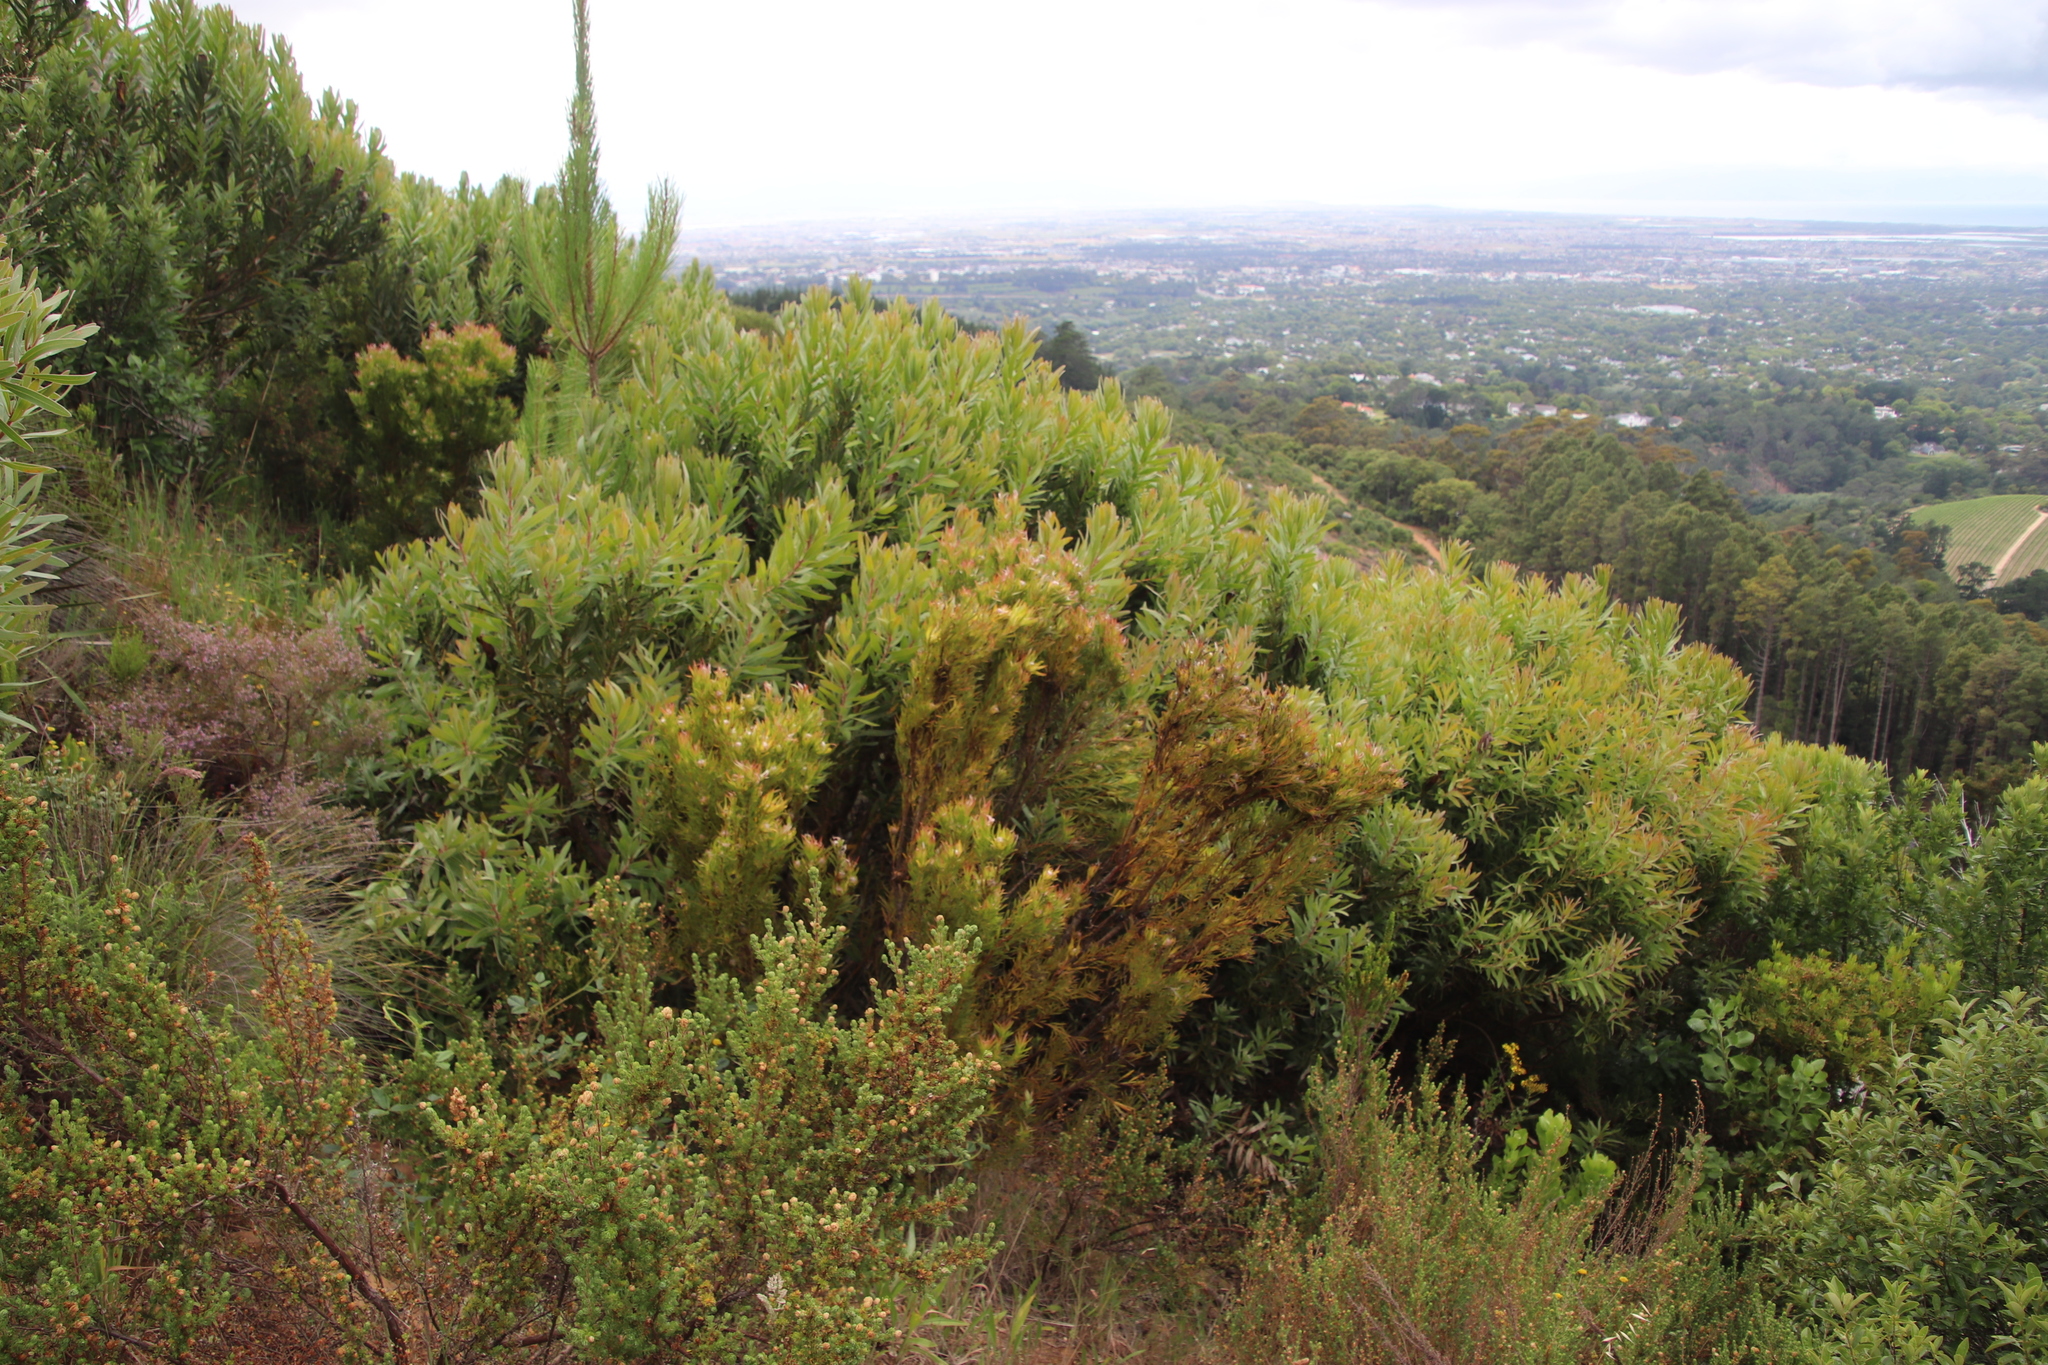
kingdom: Plantae
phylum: Tracheophyta
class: Magnoliopsida
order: Proteales
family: Proteaceae
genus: Leucadendron
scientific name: Leucadendron xanthoconus
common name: Sickle-leaf conebush
